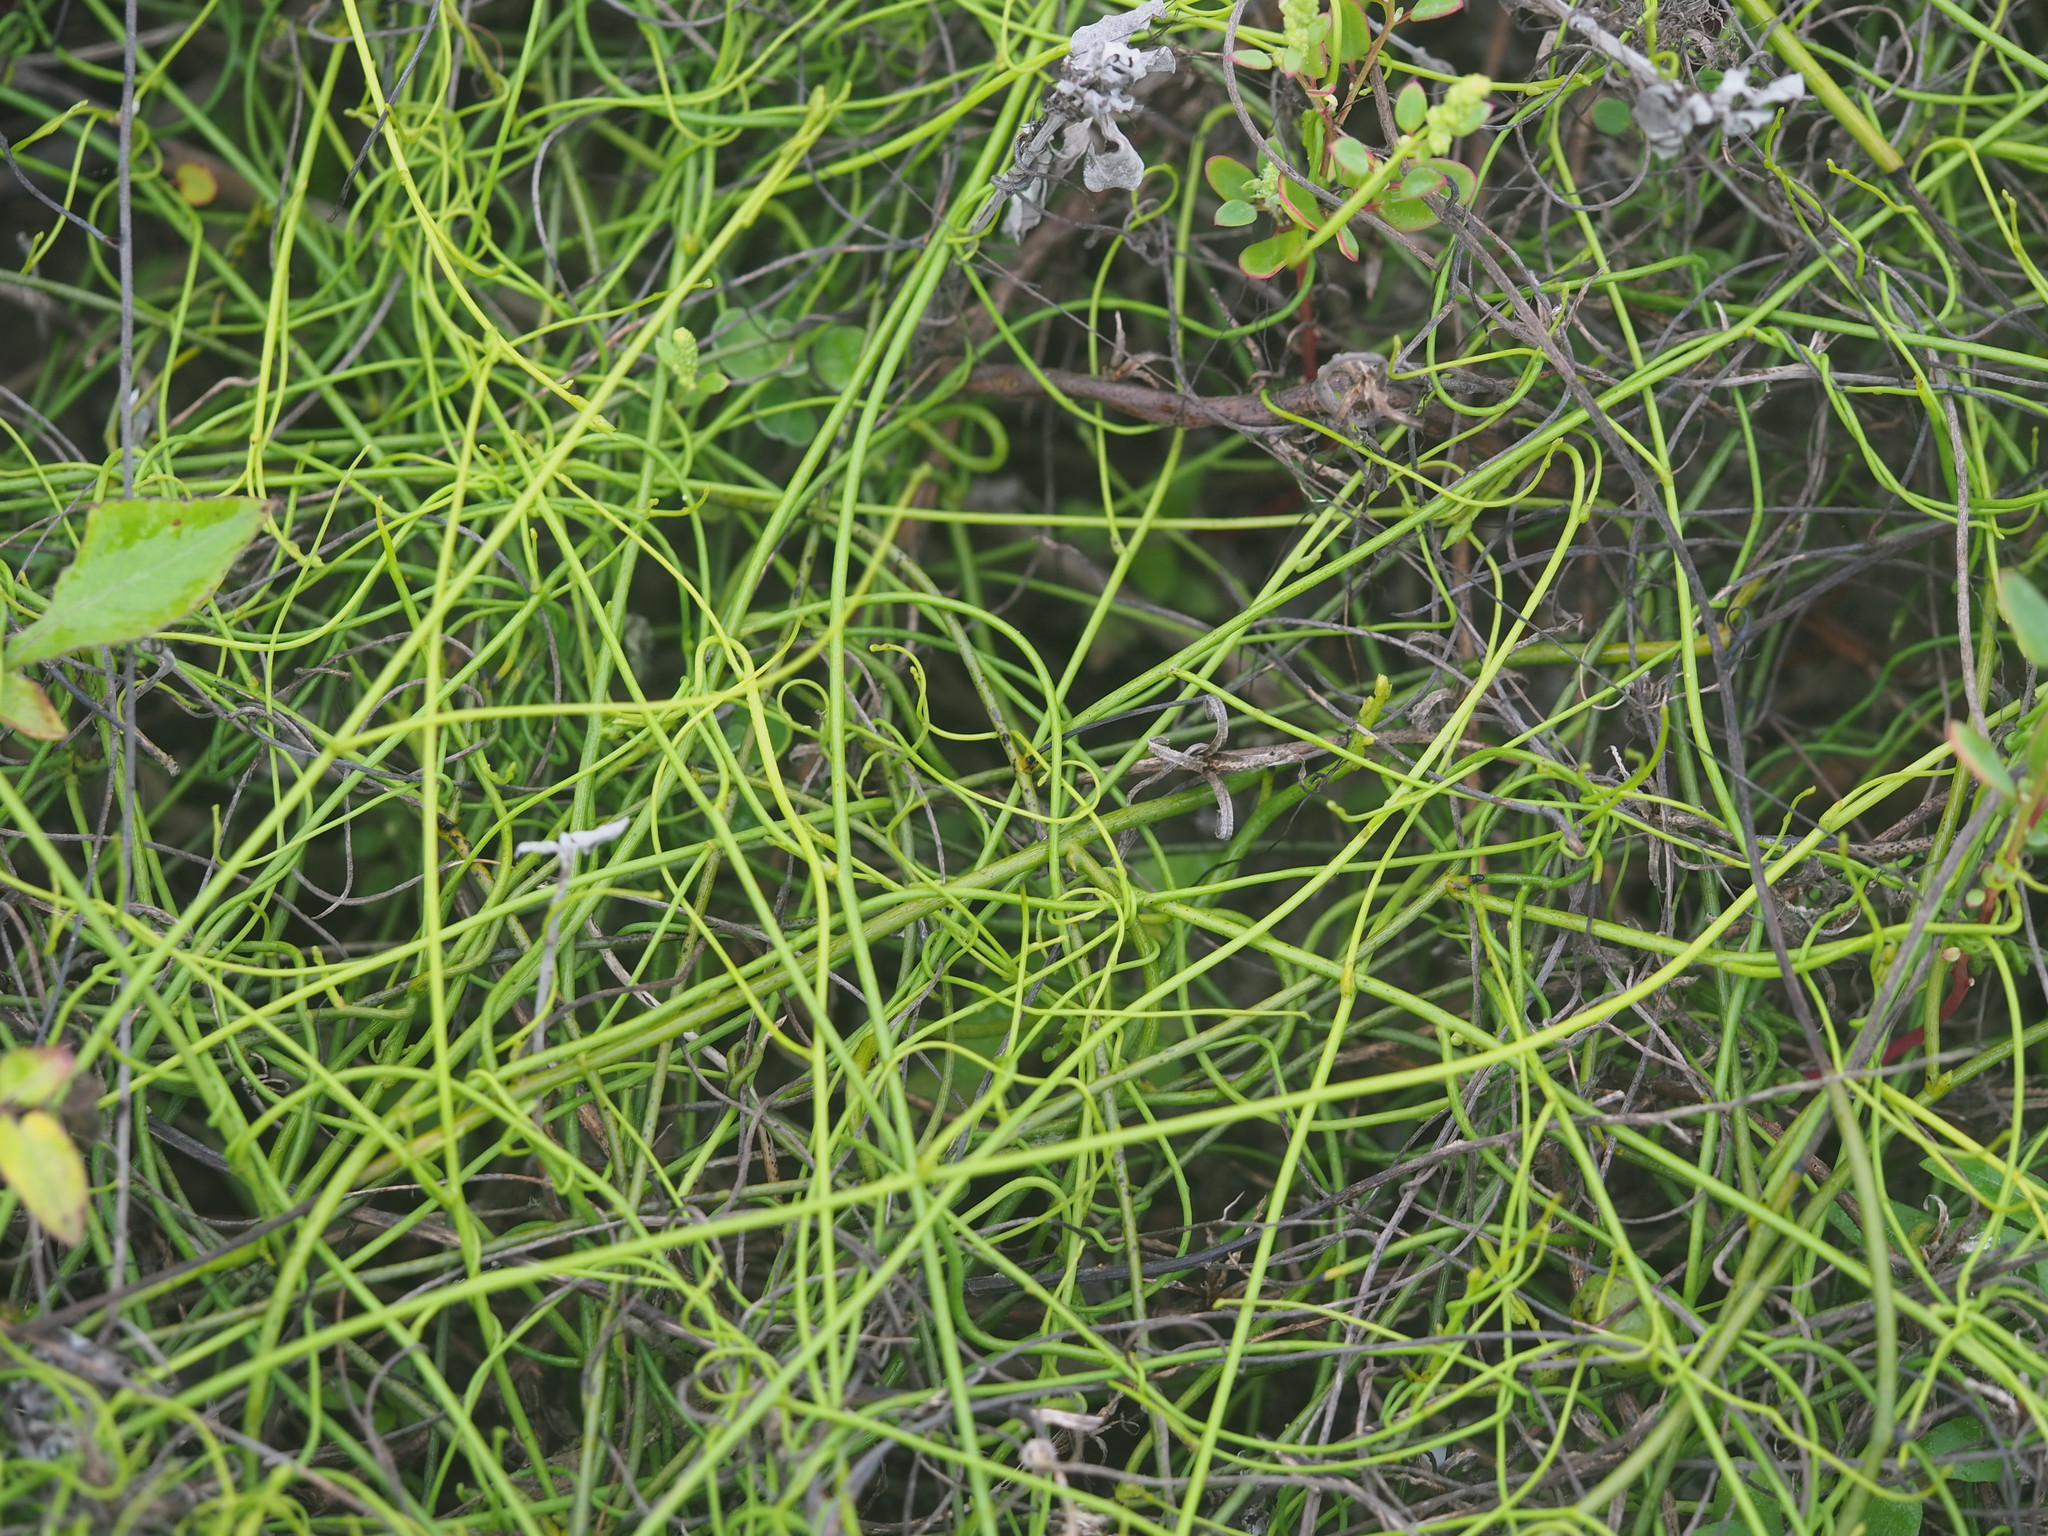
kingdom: Plantae
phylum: Tracheophyta
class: Magnoliopsida
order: Laurales
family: Lauraceae
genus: Cassytha
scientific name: Cassytha filiformis
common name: Dodder-laurel
